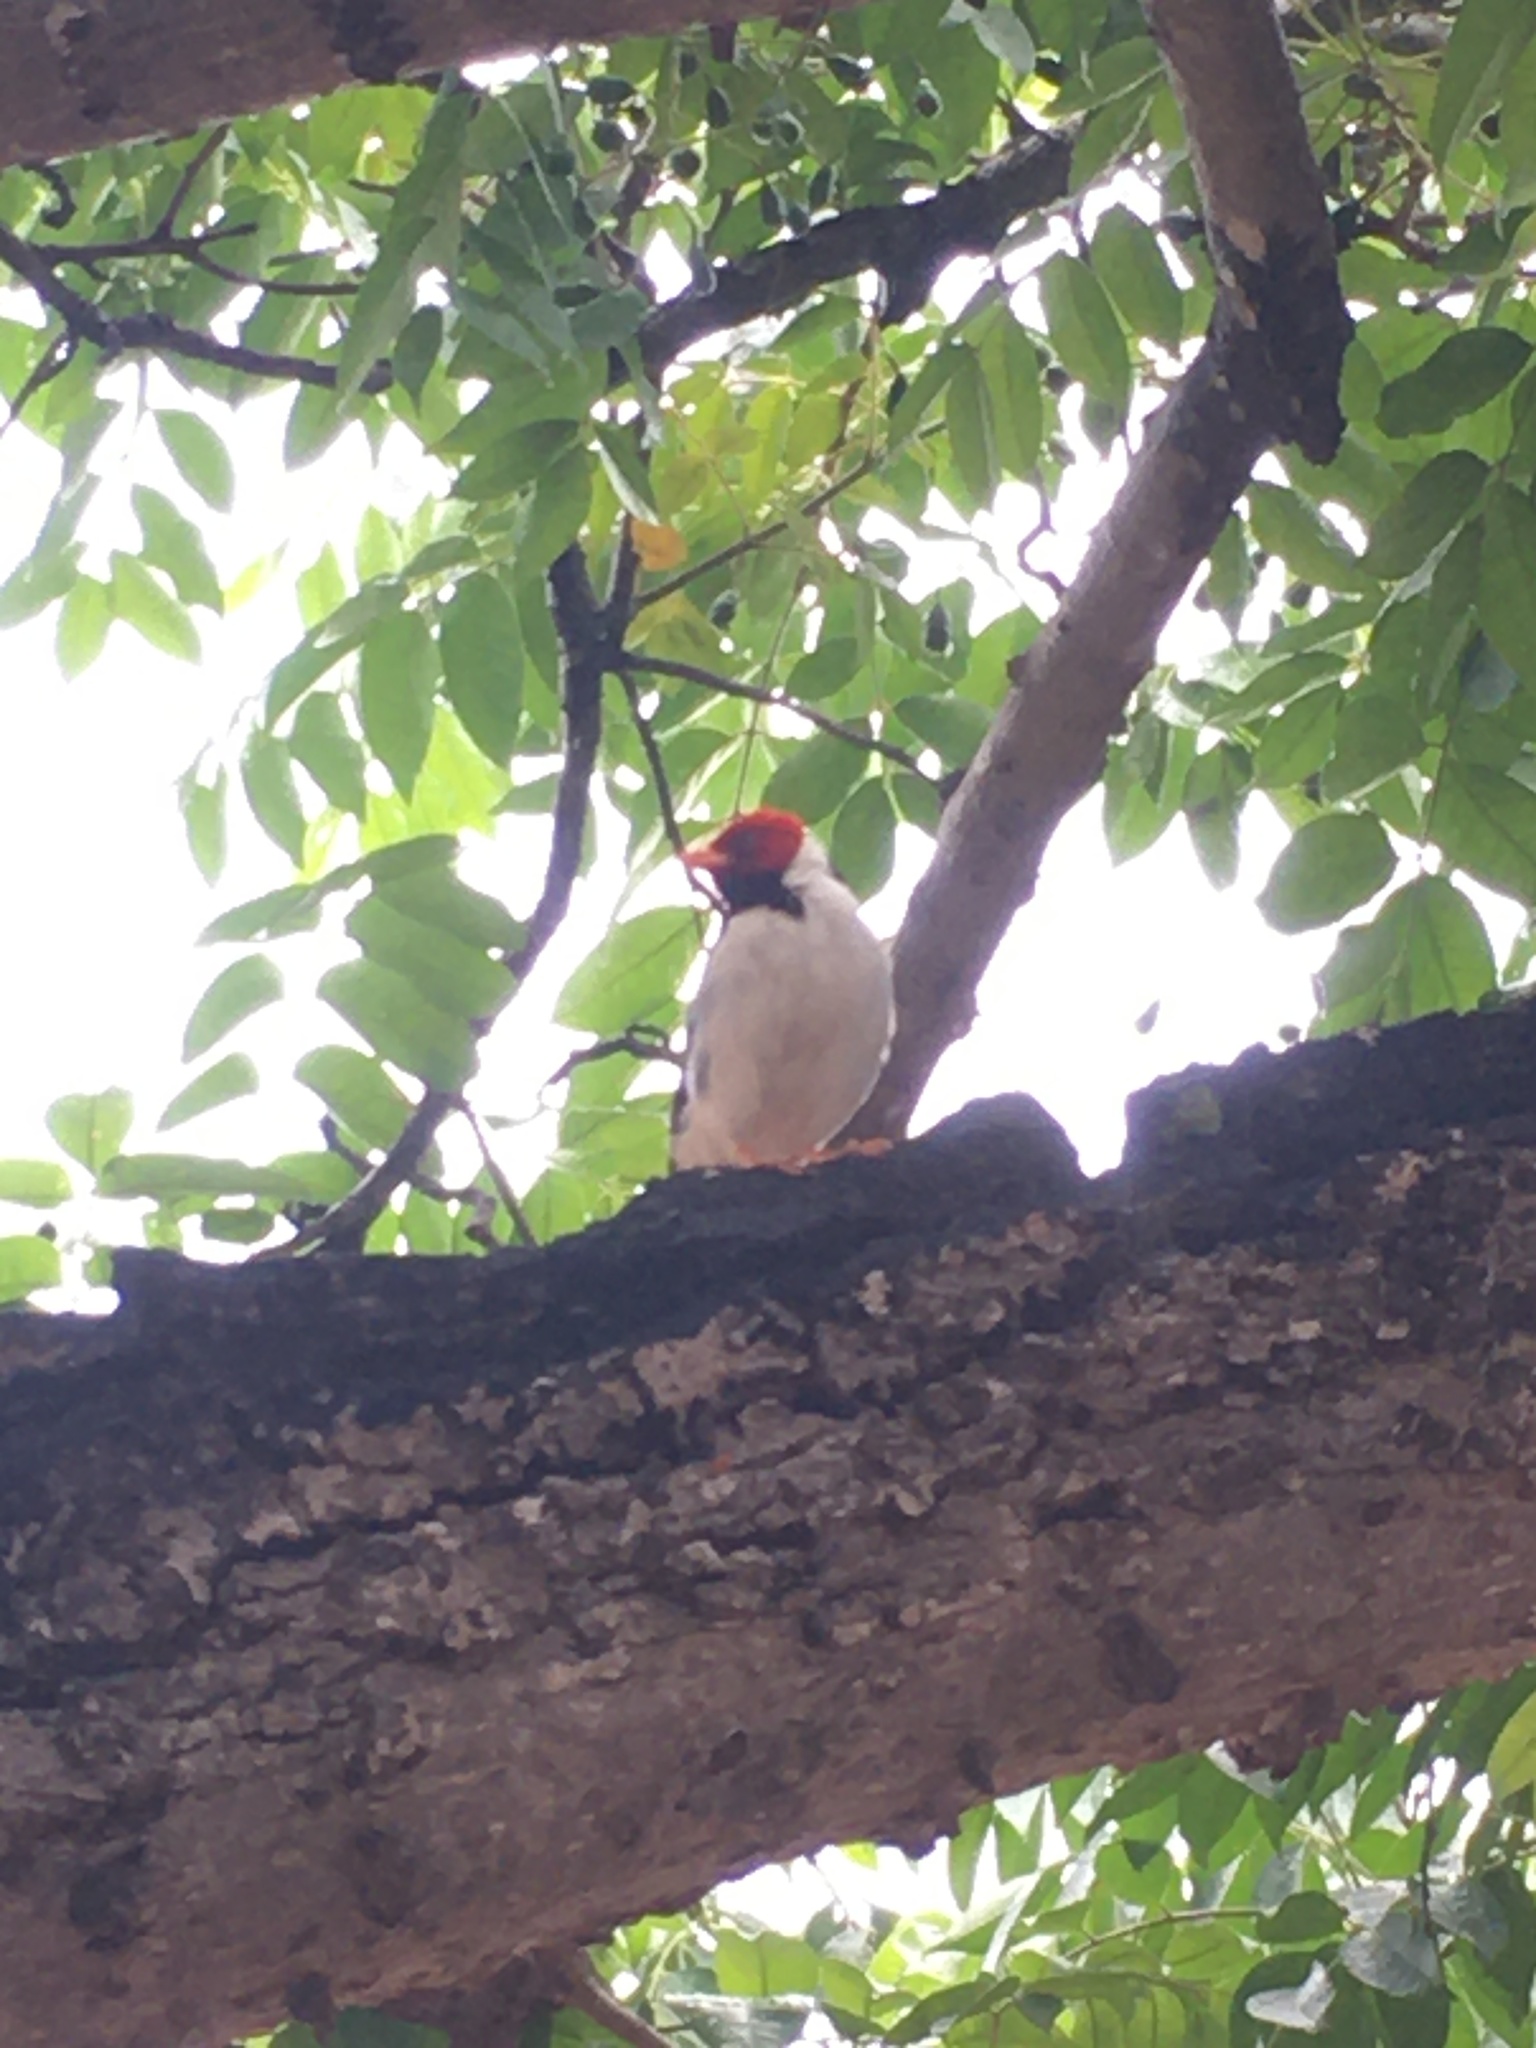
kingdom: Animalia
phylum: Chordata
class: Aves
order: Passeriformes
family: Thraupidae
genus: Paroaria
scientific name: Paroaria capitata
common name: Yellow-billed cardinal
